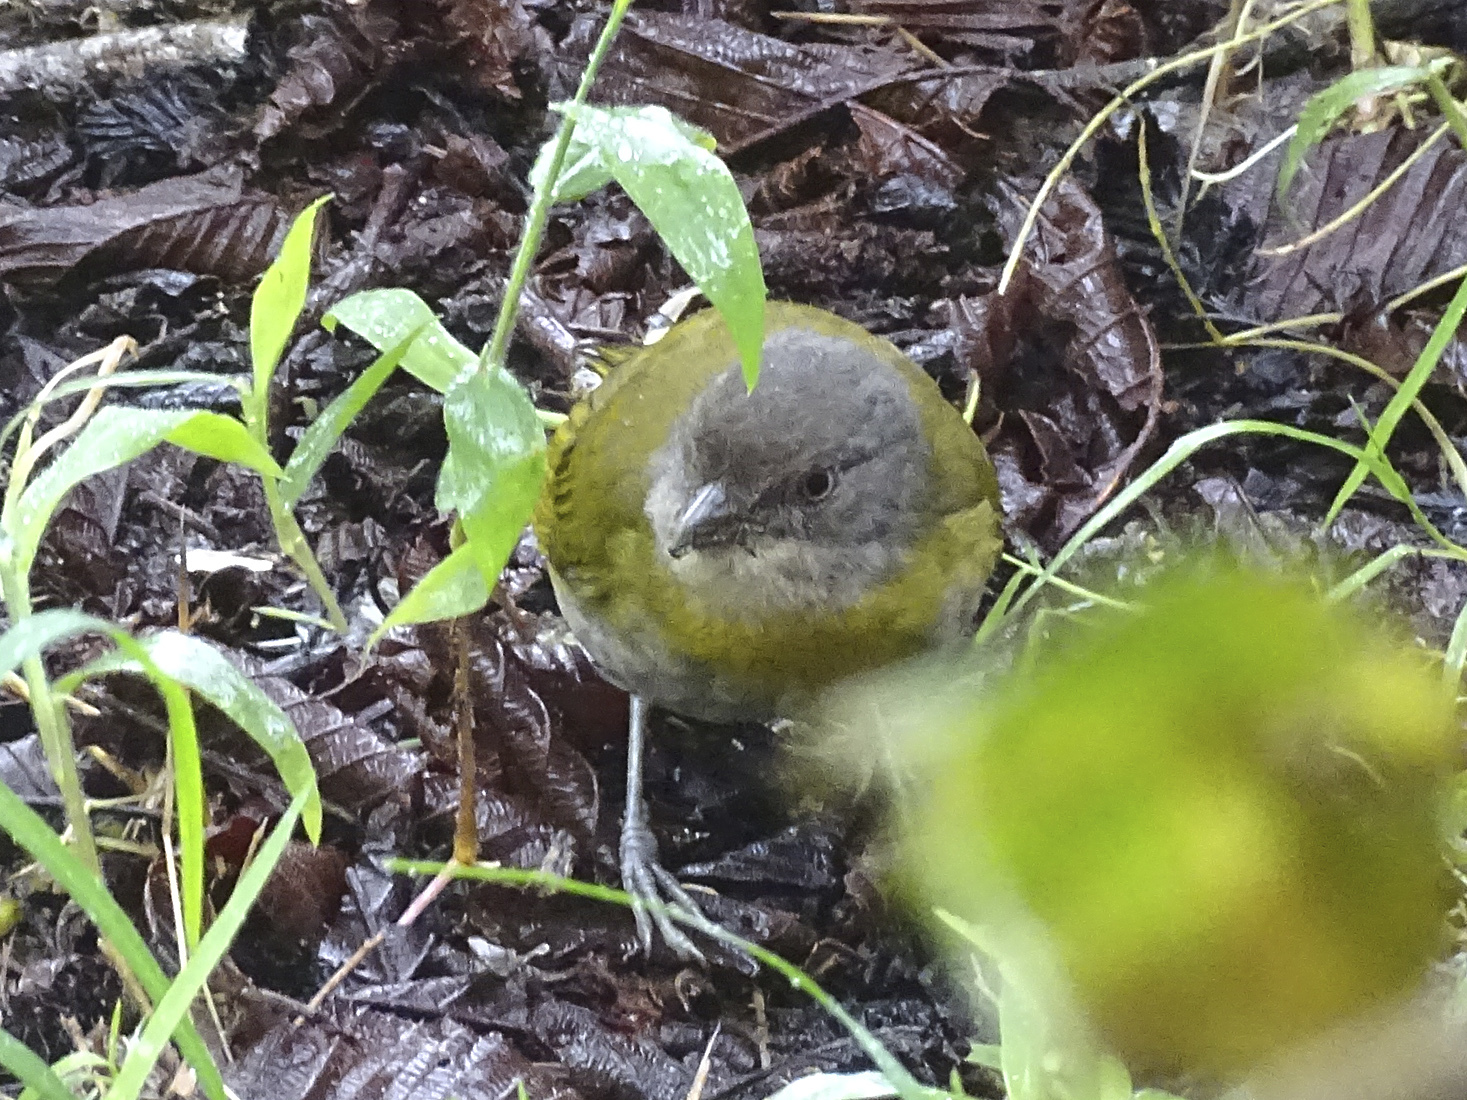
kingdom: Animalia
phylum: Chordata
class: Aves
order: Passeriformes
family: Passerellidae
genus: Chlorospingus
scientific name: Chlorospingus flavopectus
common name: Common chlorospingus
